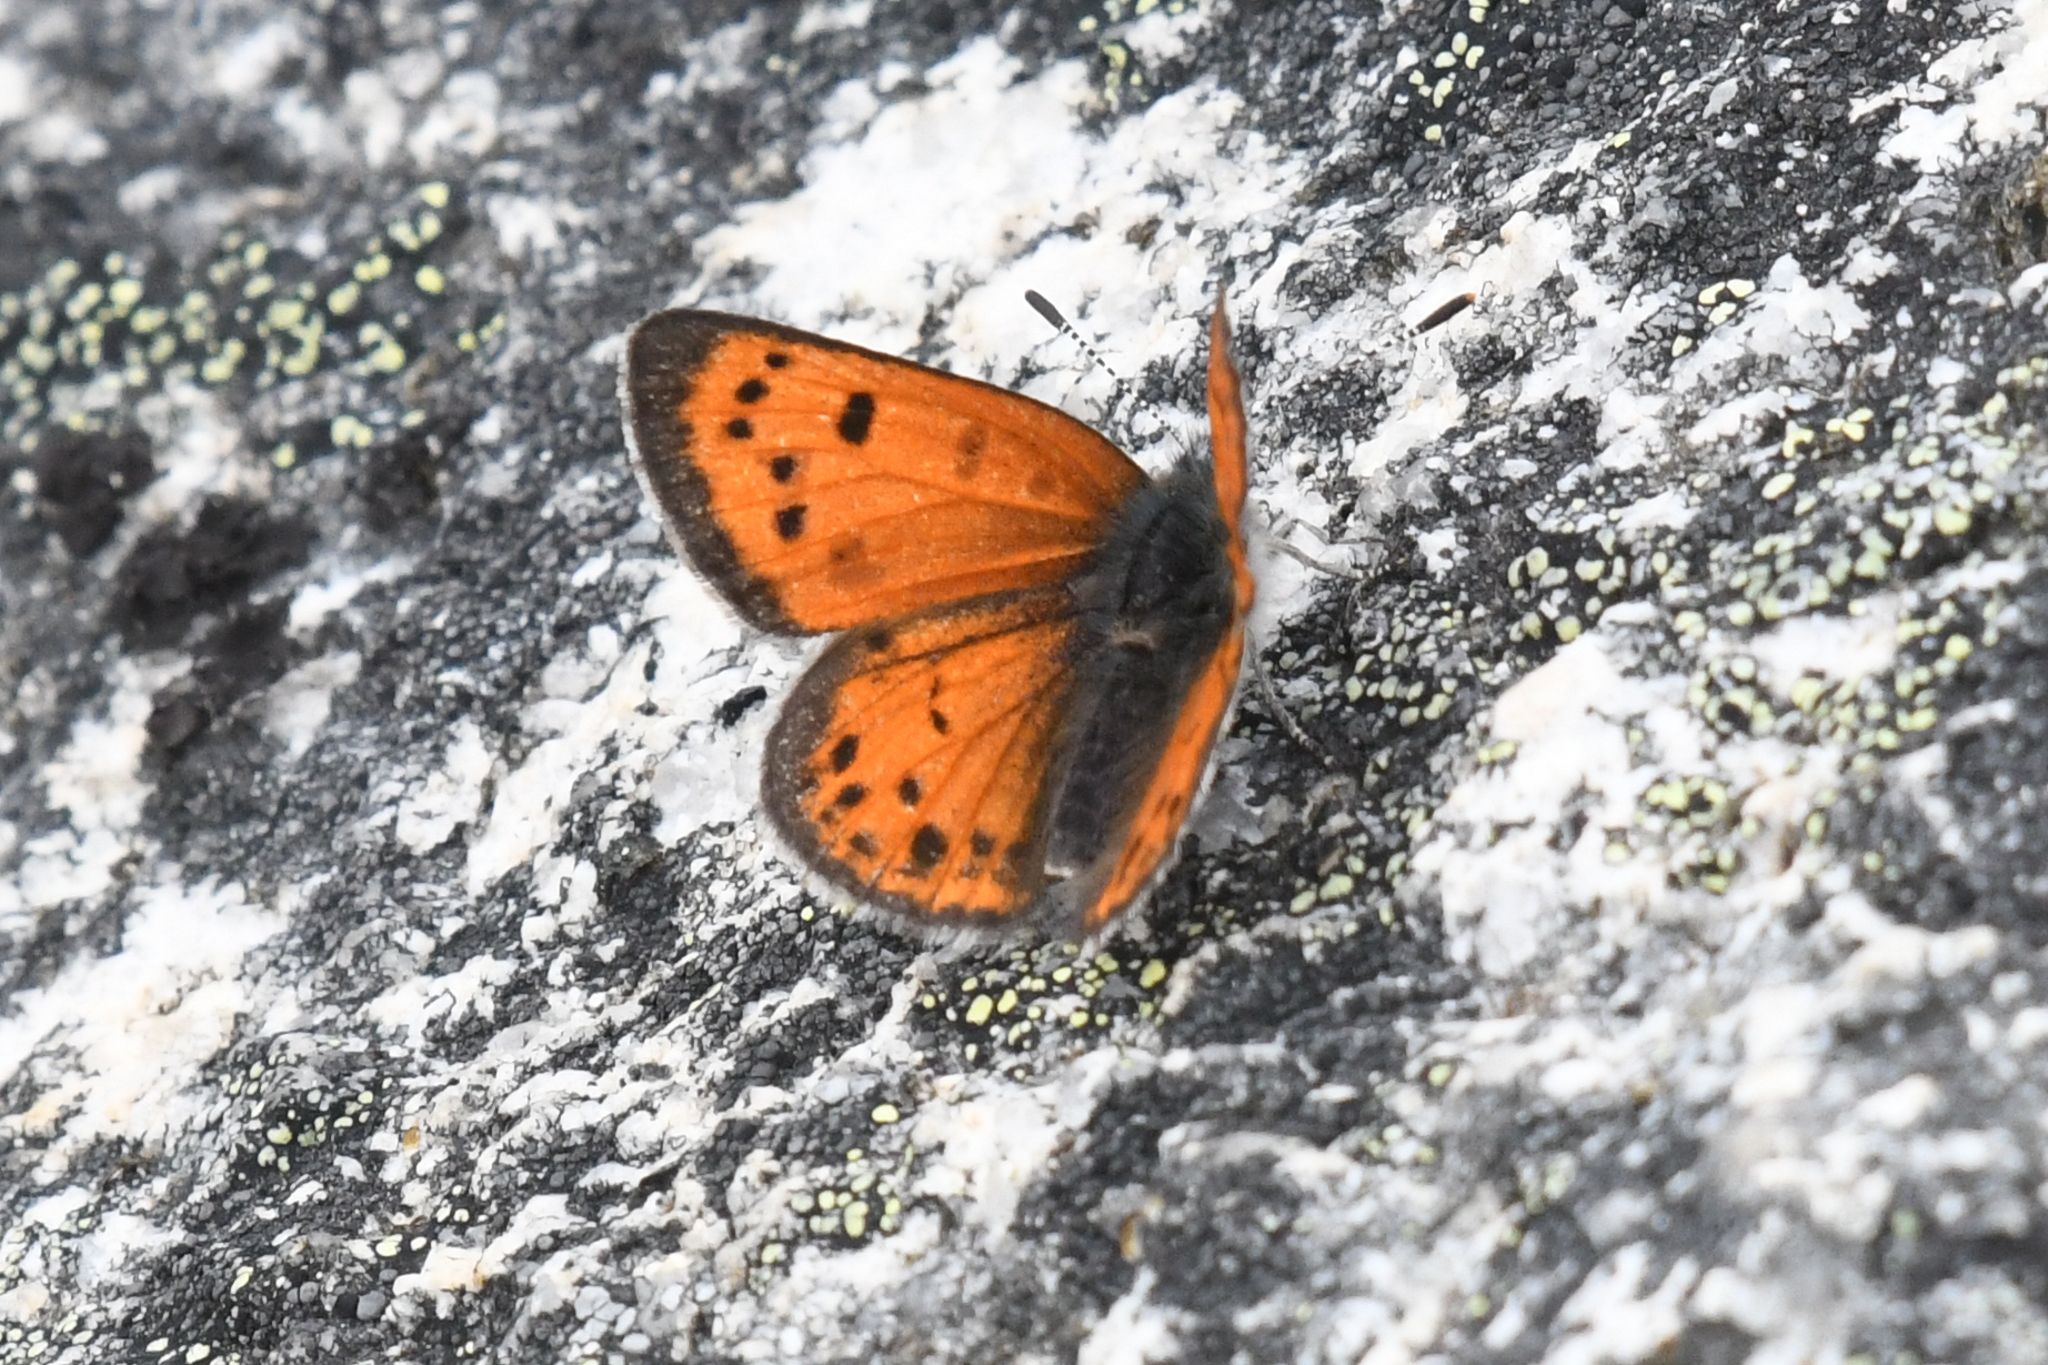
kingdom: Animalia
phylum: Arthropoda
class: Insecta
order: Lepidoptera
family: Lycaenidae
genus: Lycaena
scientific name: Lycaena cupreus
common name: Lustrous copper
